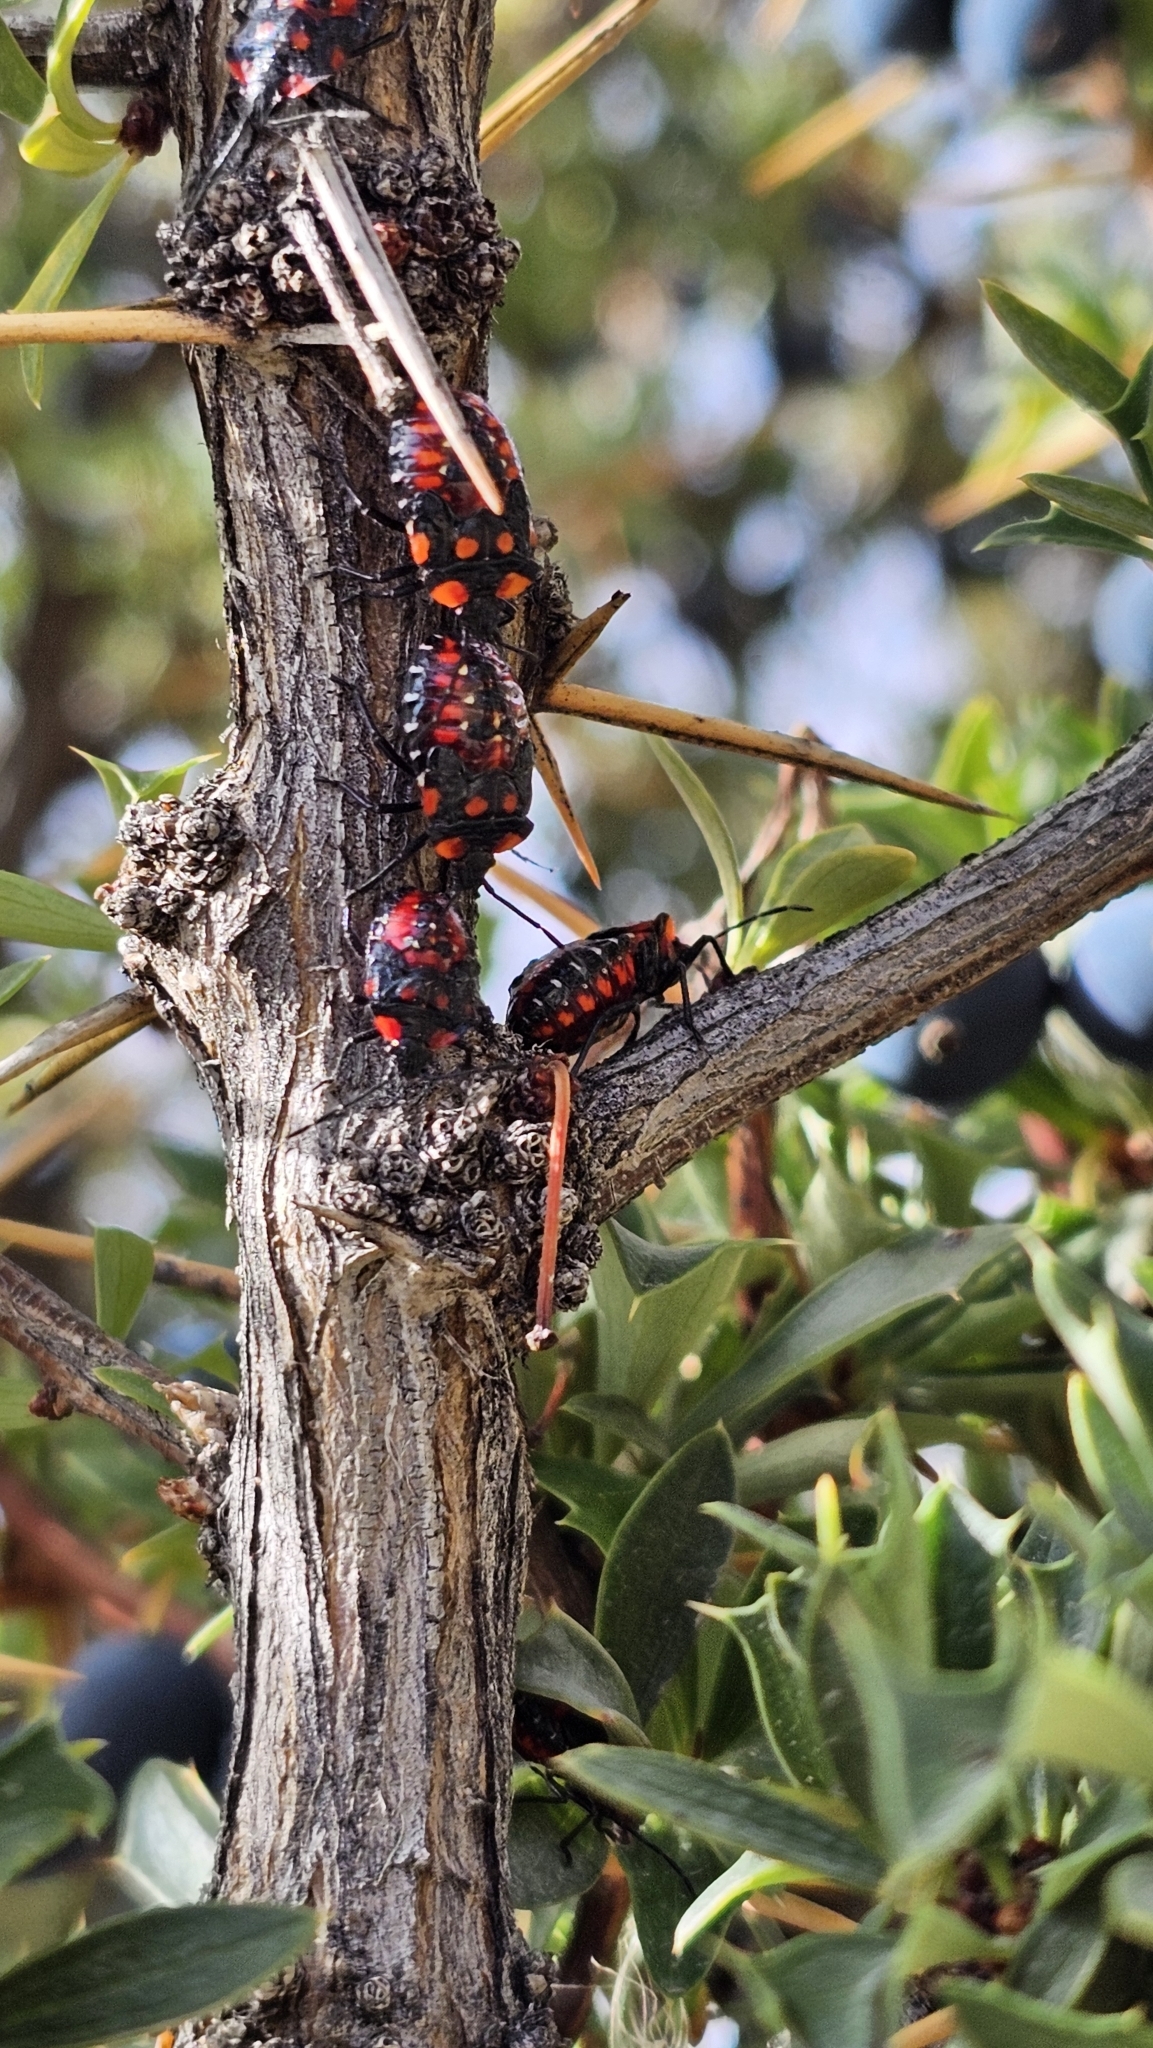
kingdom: Animalia
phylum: Arthropoda
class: Insecta
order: Hemiptera
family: Acanthosomatidae
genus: Phorbanta
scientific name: Phorbanta variabilis
